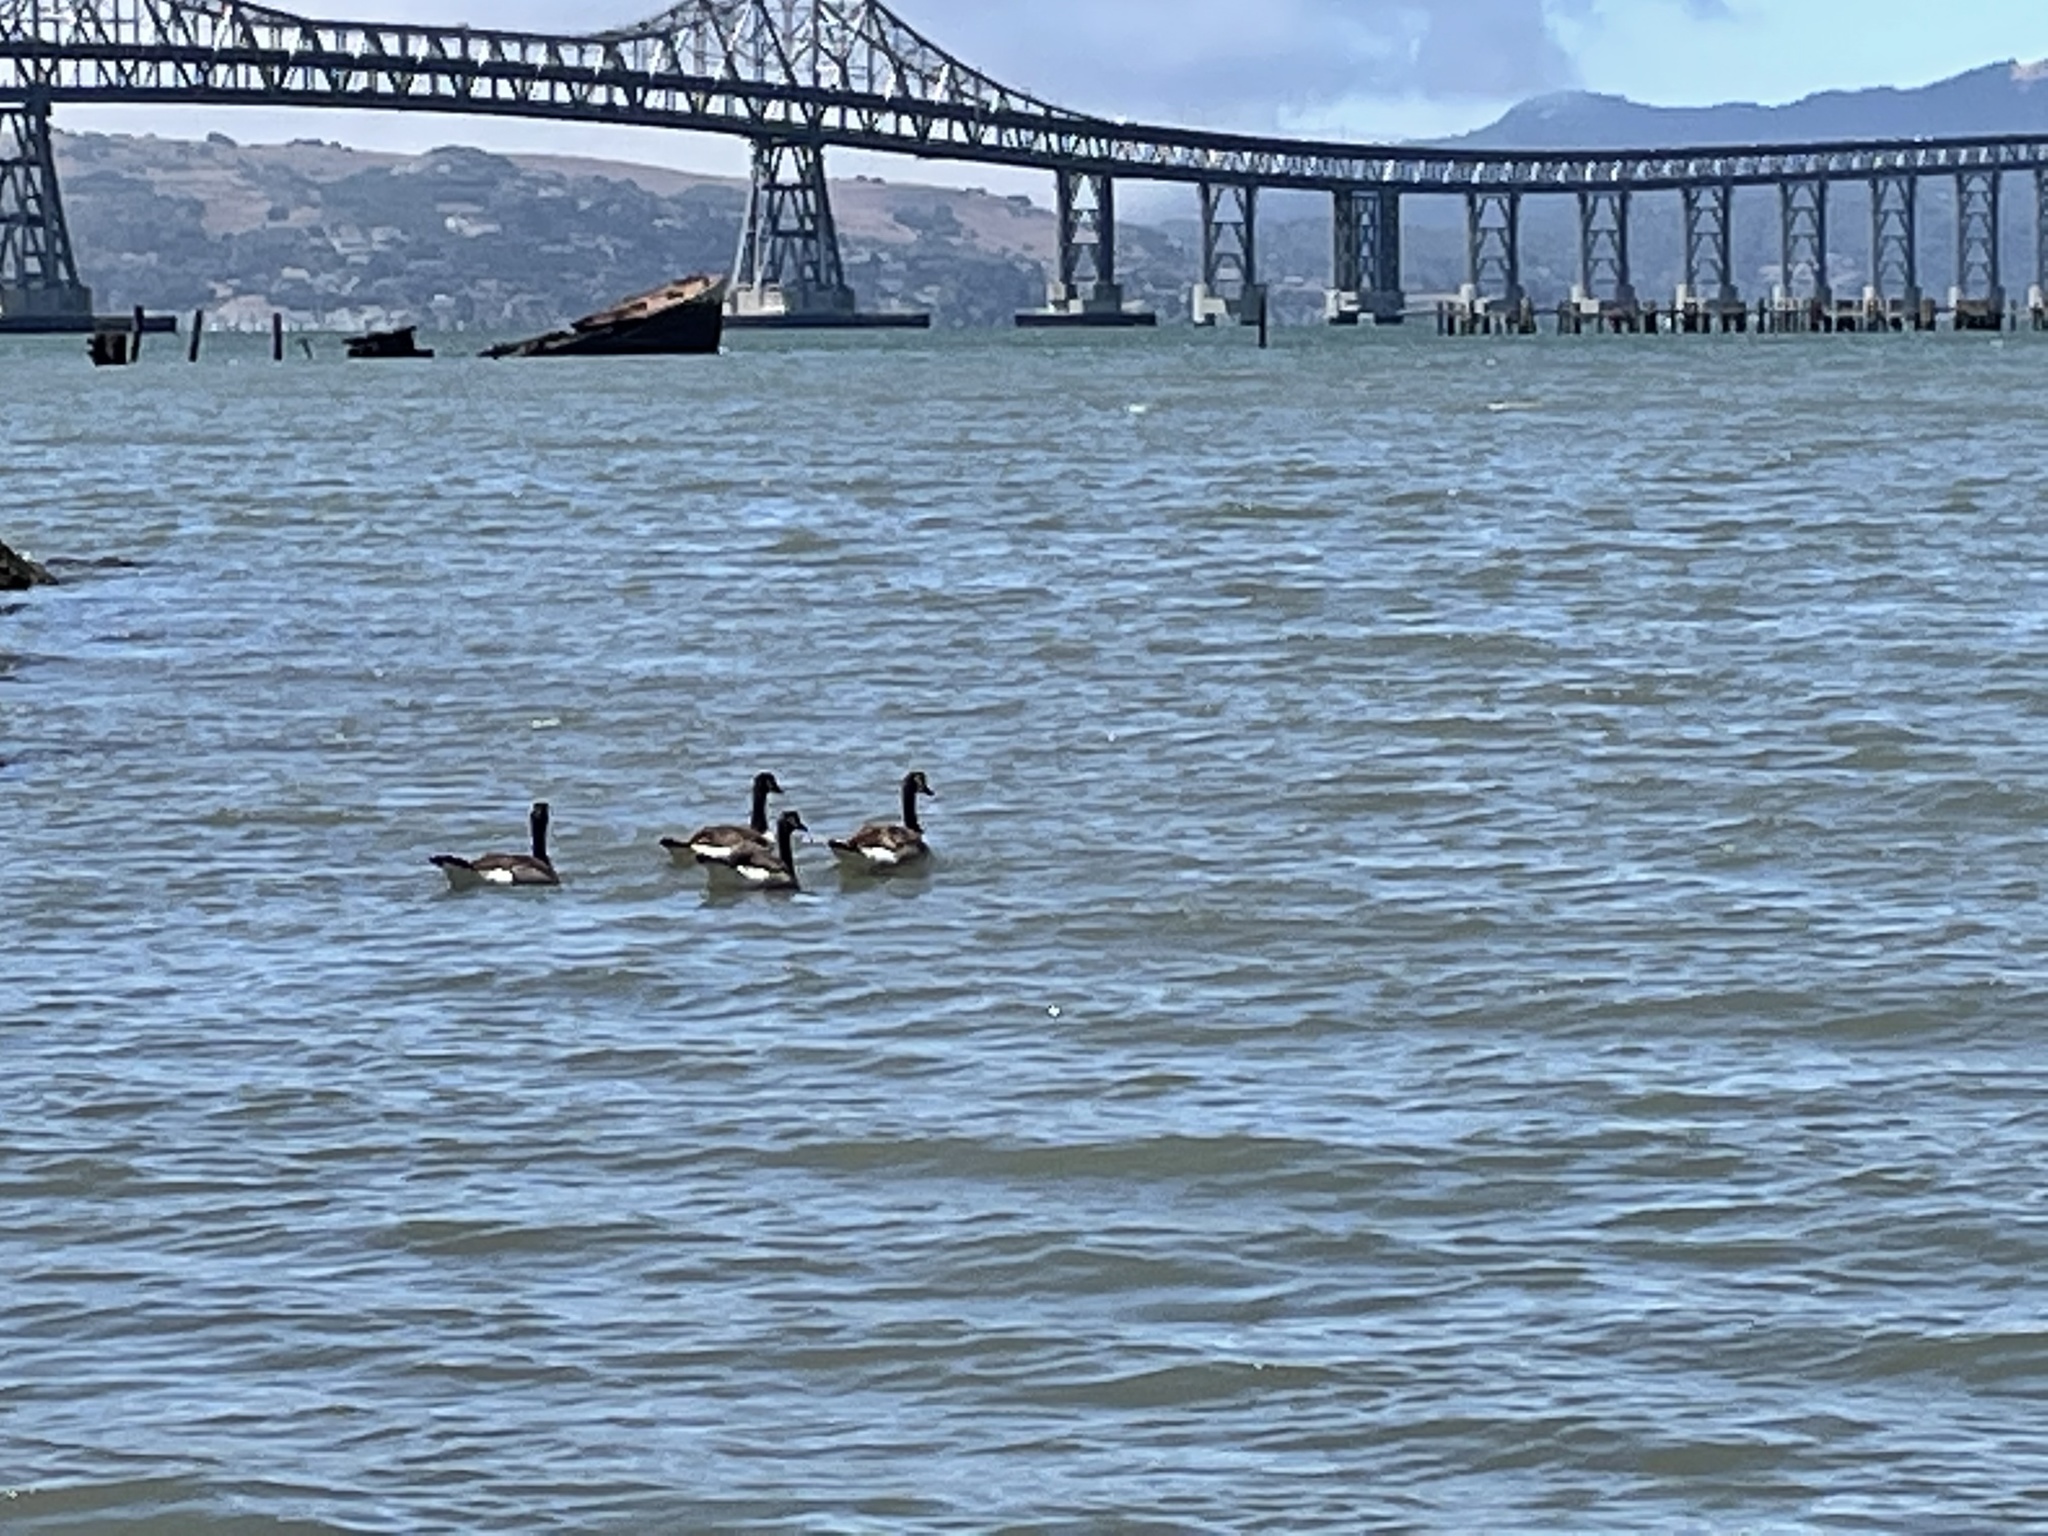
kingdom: Animalia
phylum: Chordata
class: Aves
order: Anseriformes
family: Anatidae
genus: Branta
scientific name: Branta canadensis
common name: Canada goose
